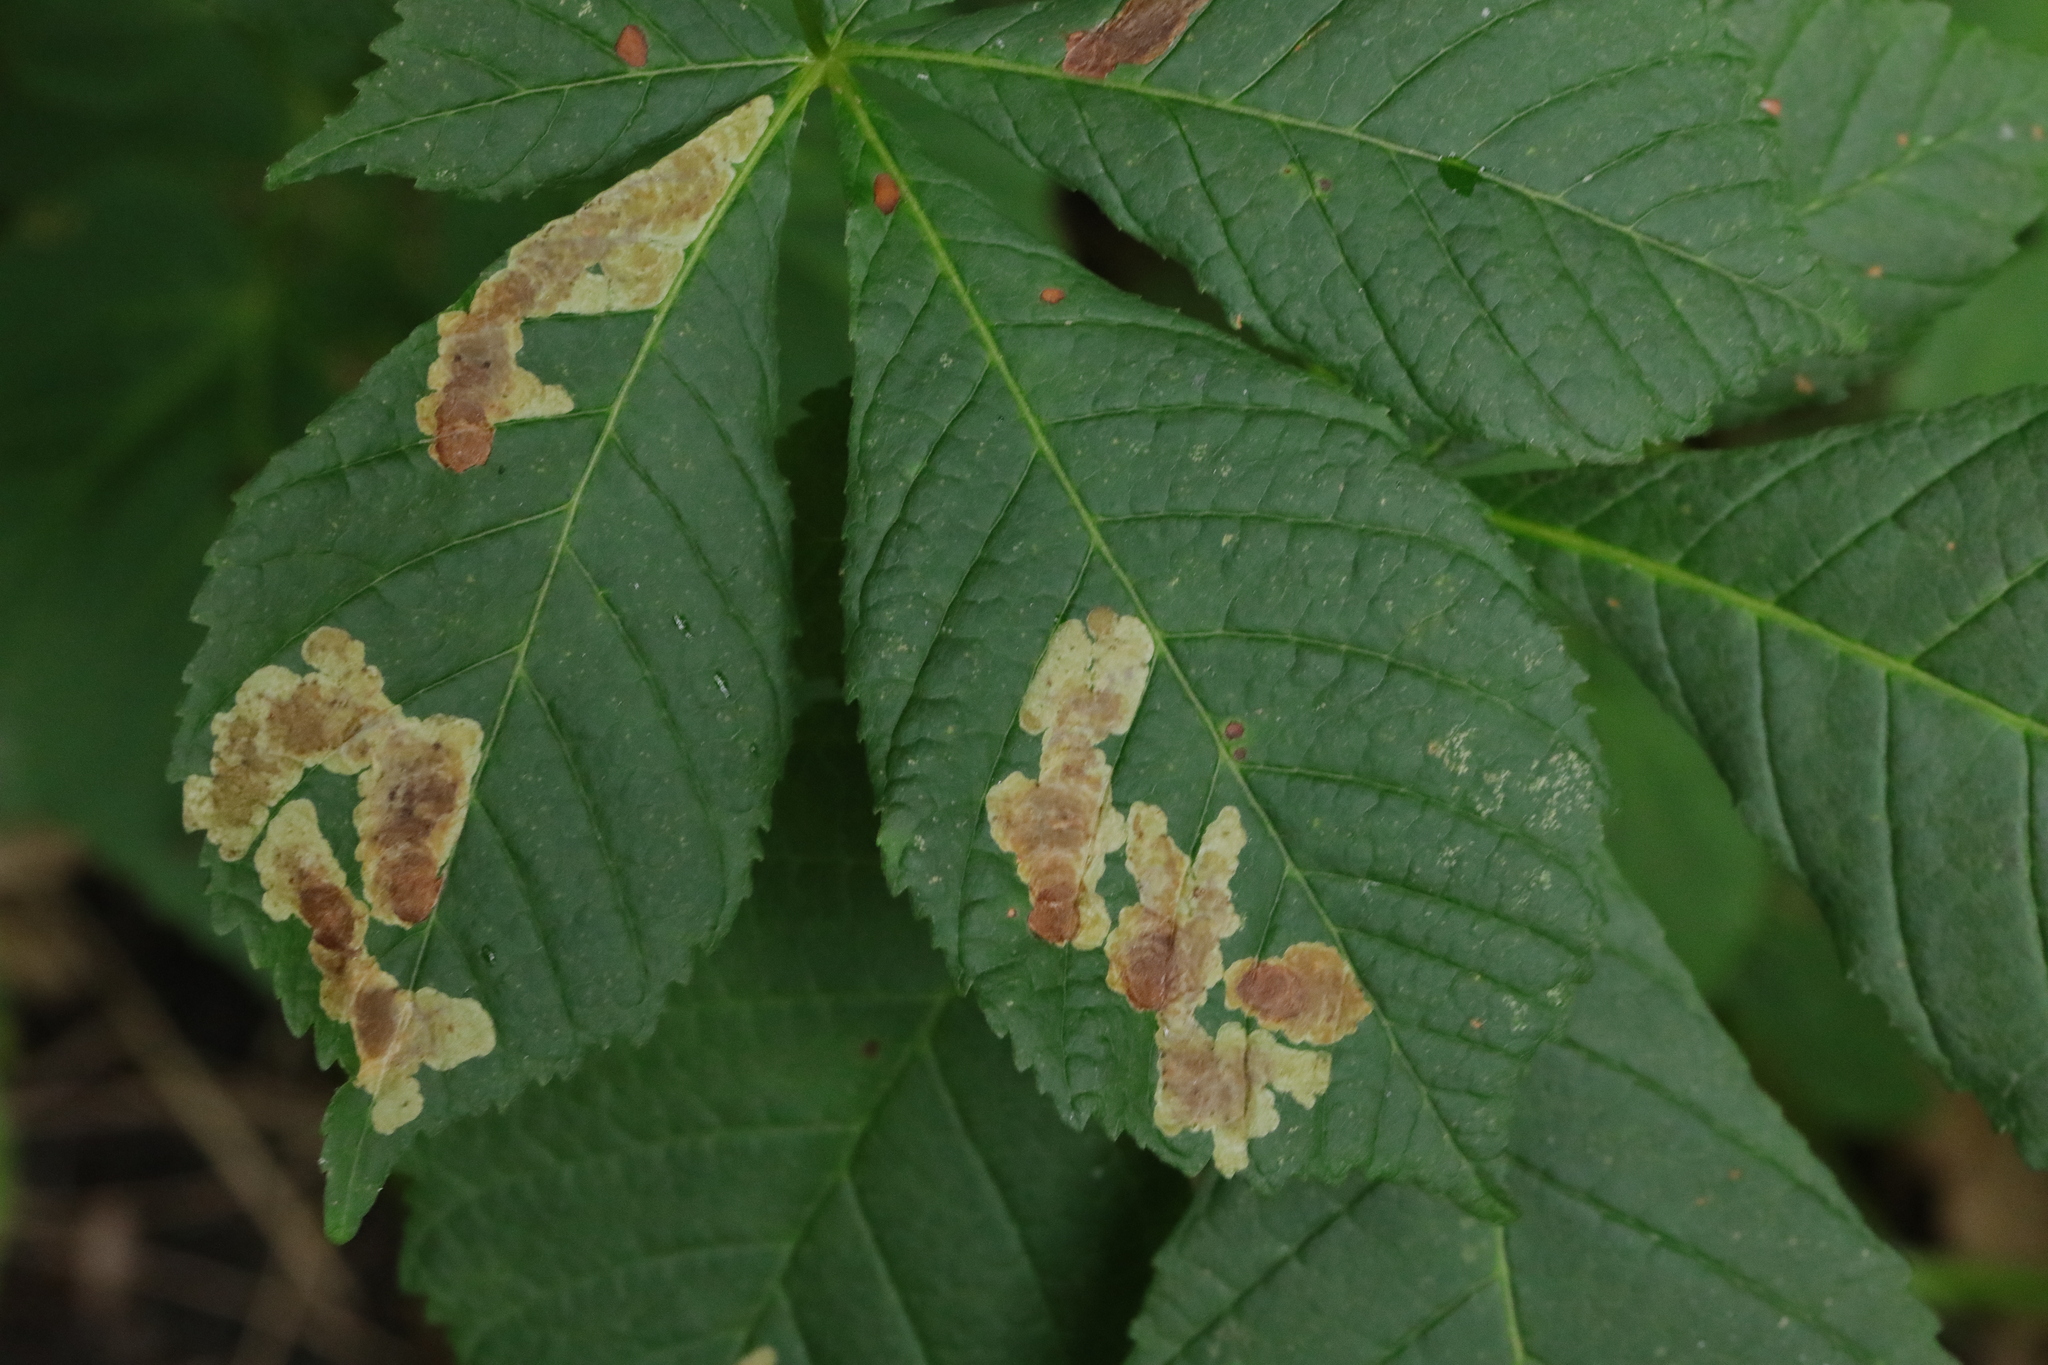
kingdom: Animalia
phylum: Arthropoda
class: Insecta
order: Lepidoptera
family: Gracillariidae
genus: Cameraria
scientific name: Cameraria ohridella
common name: Horse-chestnut leaf-miner
